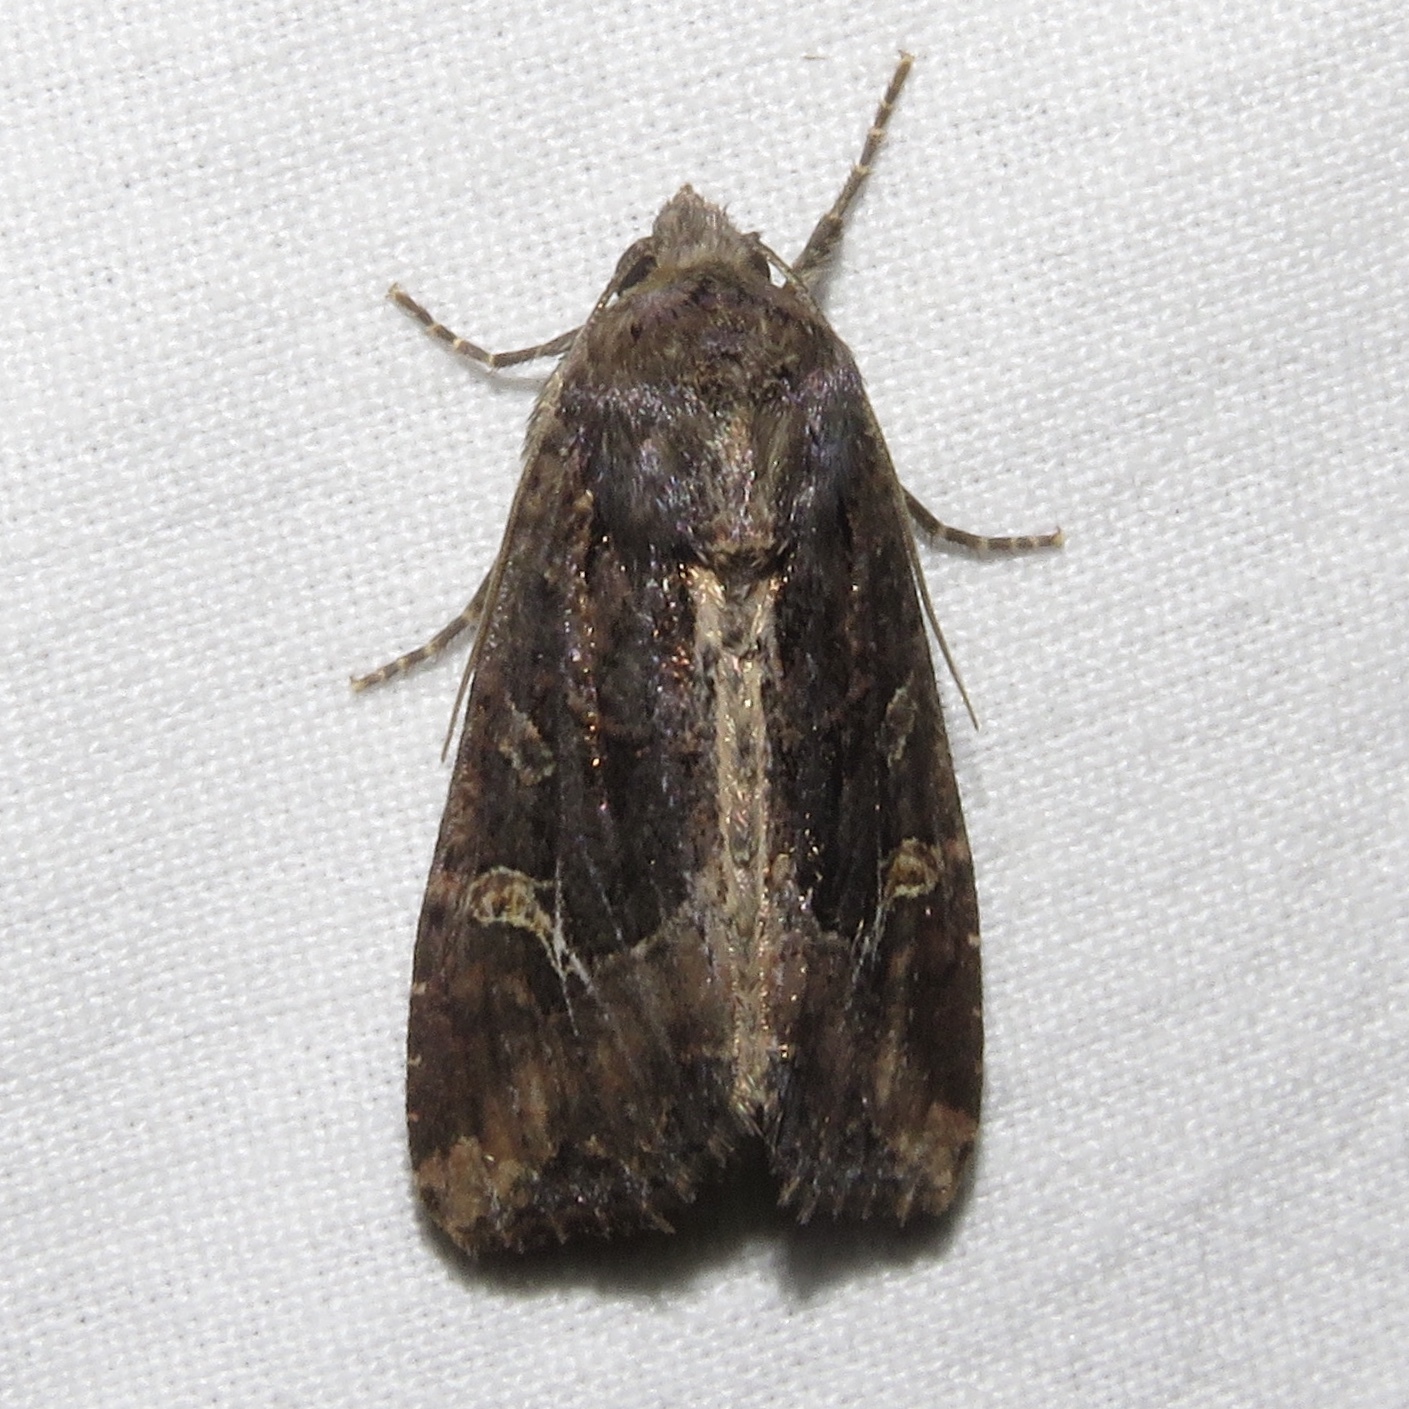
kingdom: Animalia
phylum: Arthropoda
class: Insecta
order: Lepidoptera
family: Noctuidae
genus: Helotropha
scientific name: Helotropha reniformis
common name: Kidney-spotted rustic moth
